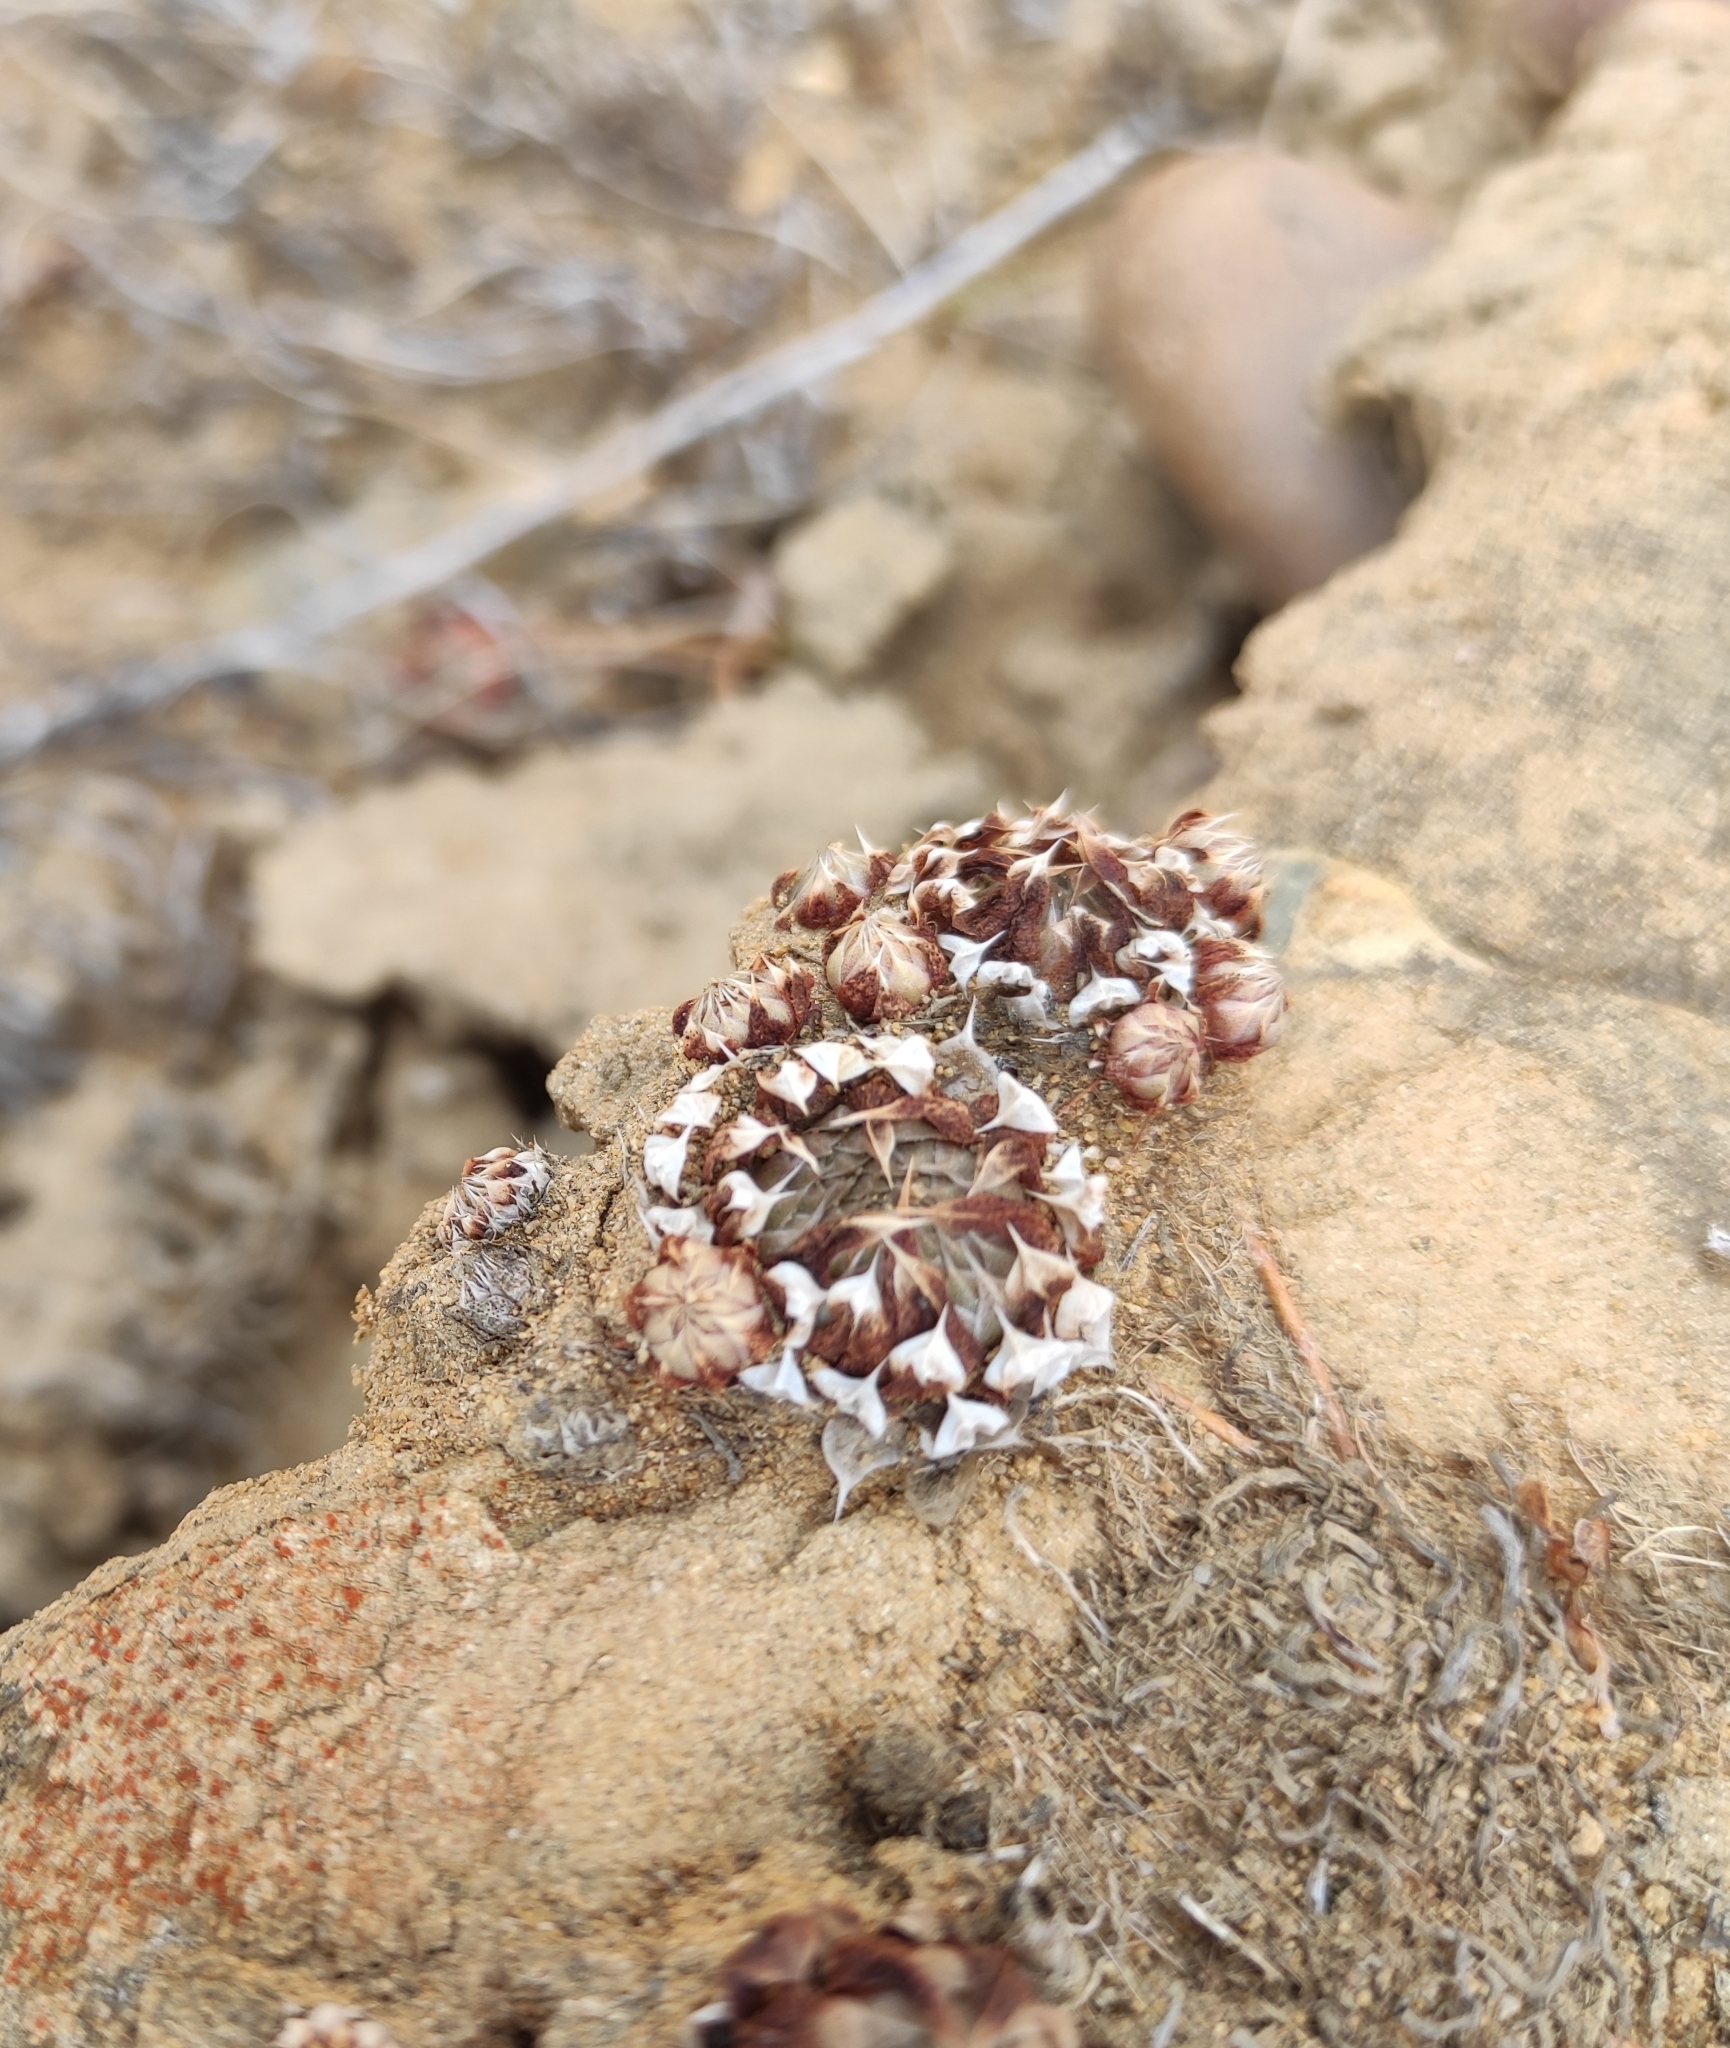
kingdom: Plantae
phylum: Tracheophyta
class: Magnoliopsida
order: Saxifragales
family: Crassulaceae
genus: Orostachys
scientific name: Orostachys spinosa
